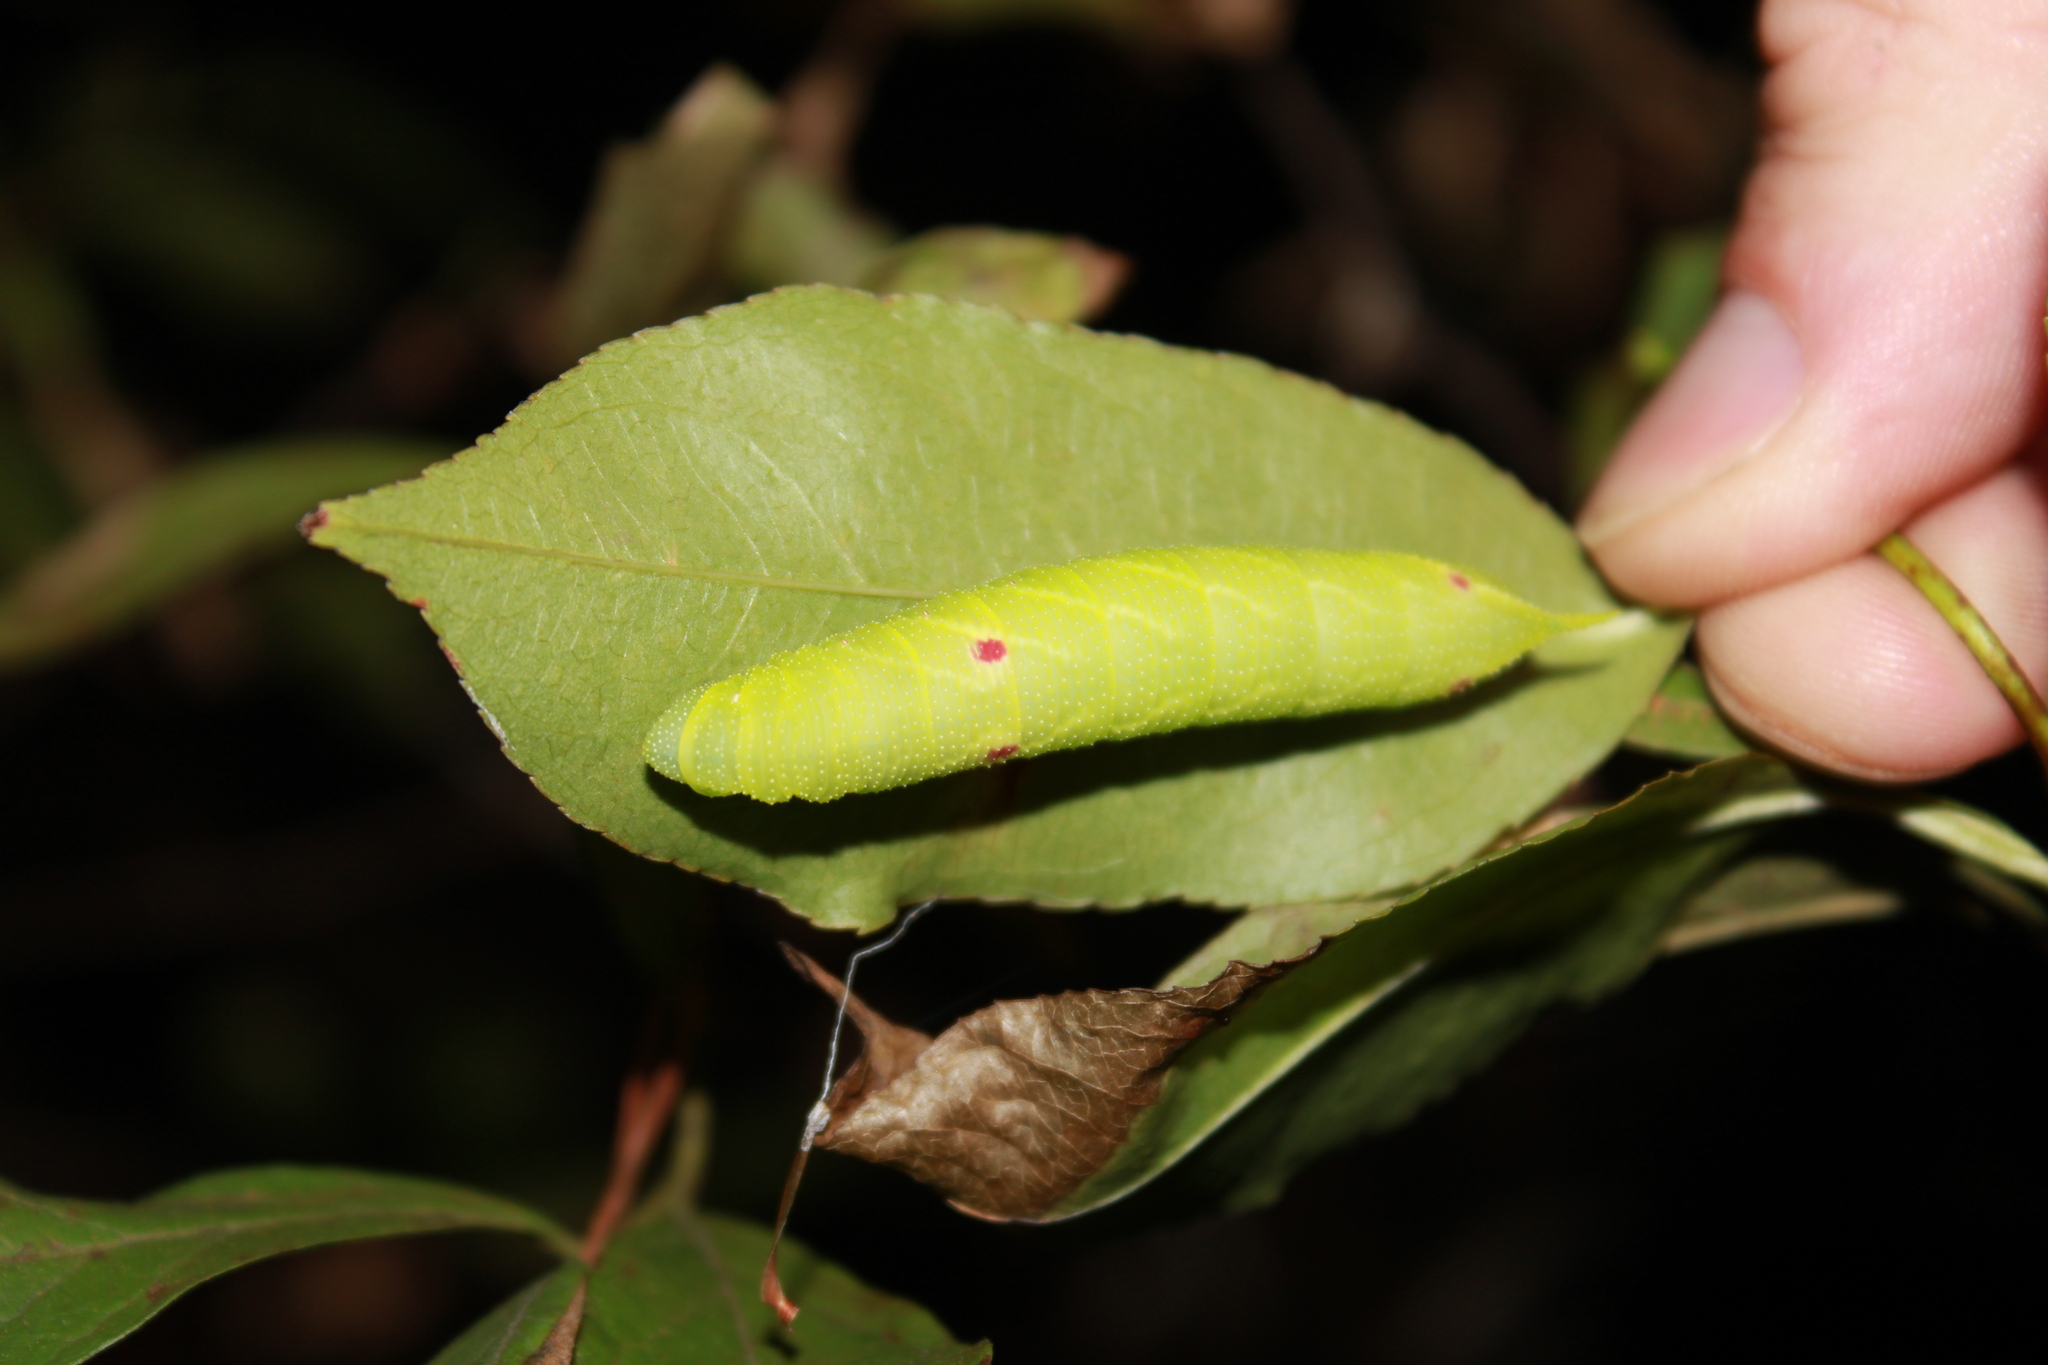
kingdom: Animalia
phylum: Arthropoda
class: Insecta
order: Lepidoptera
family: Sphingidae
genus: Paonias
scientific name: Paonias myops
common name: Small-eyed sphinx
